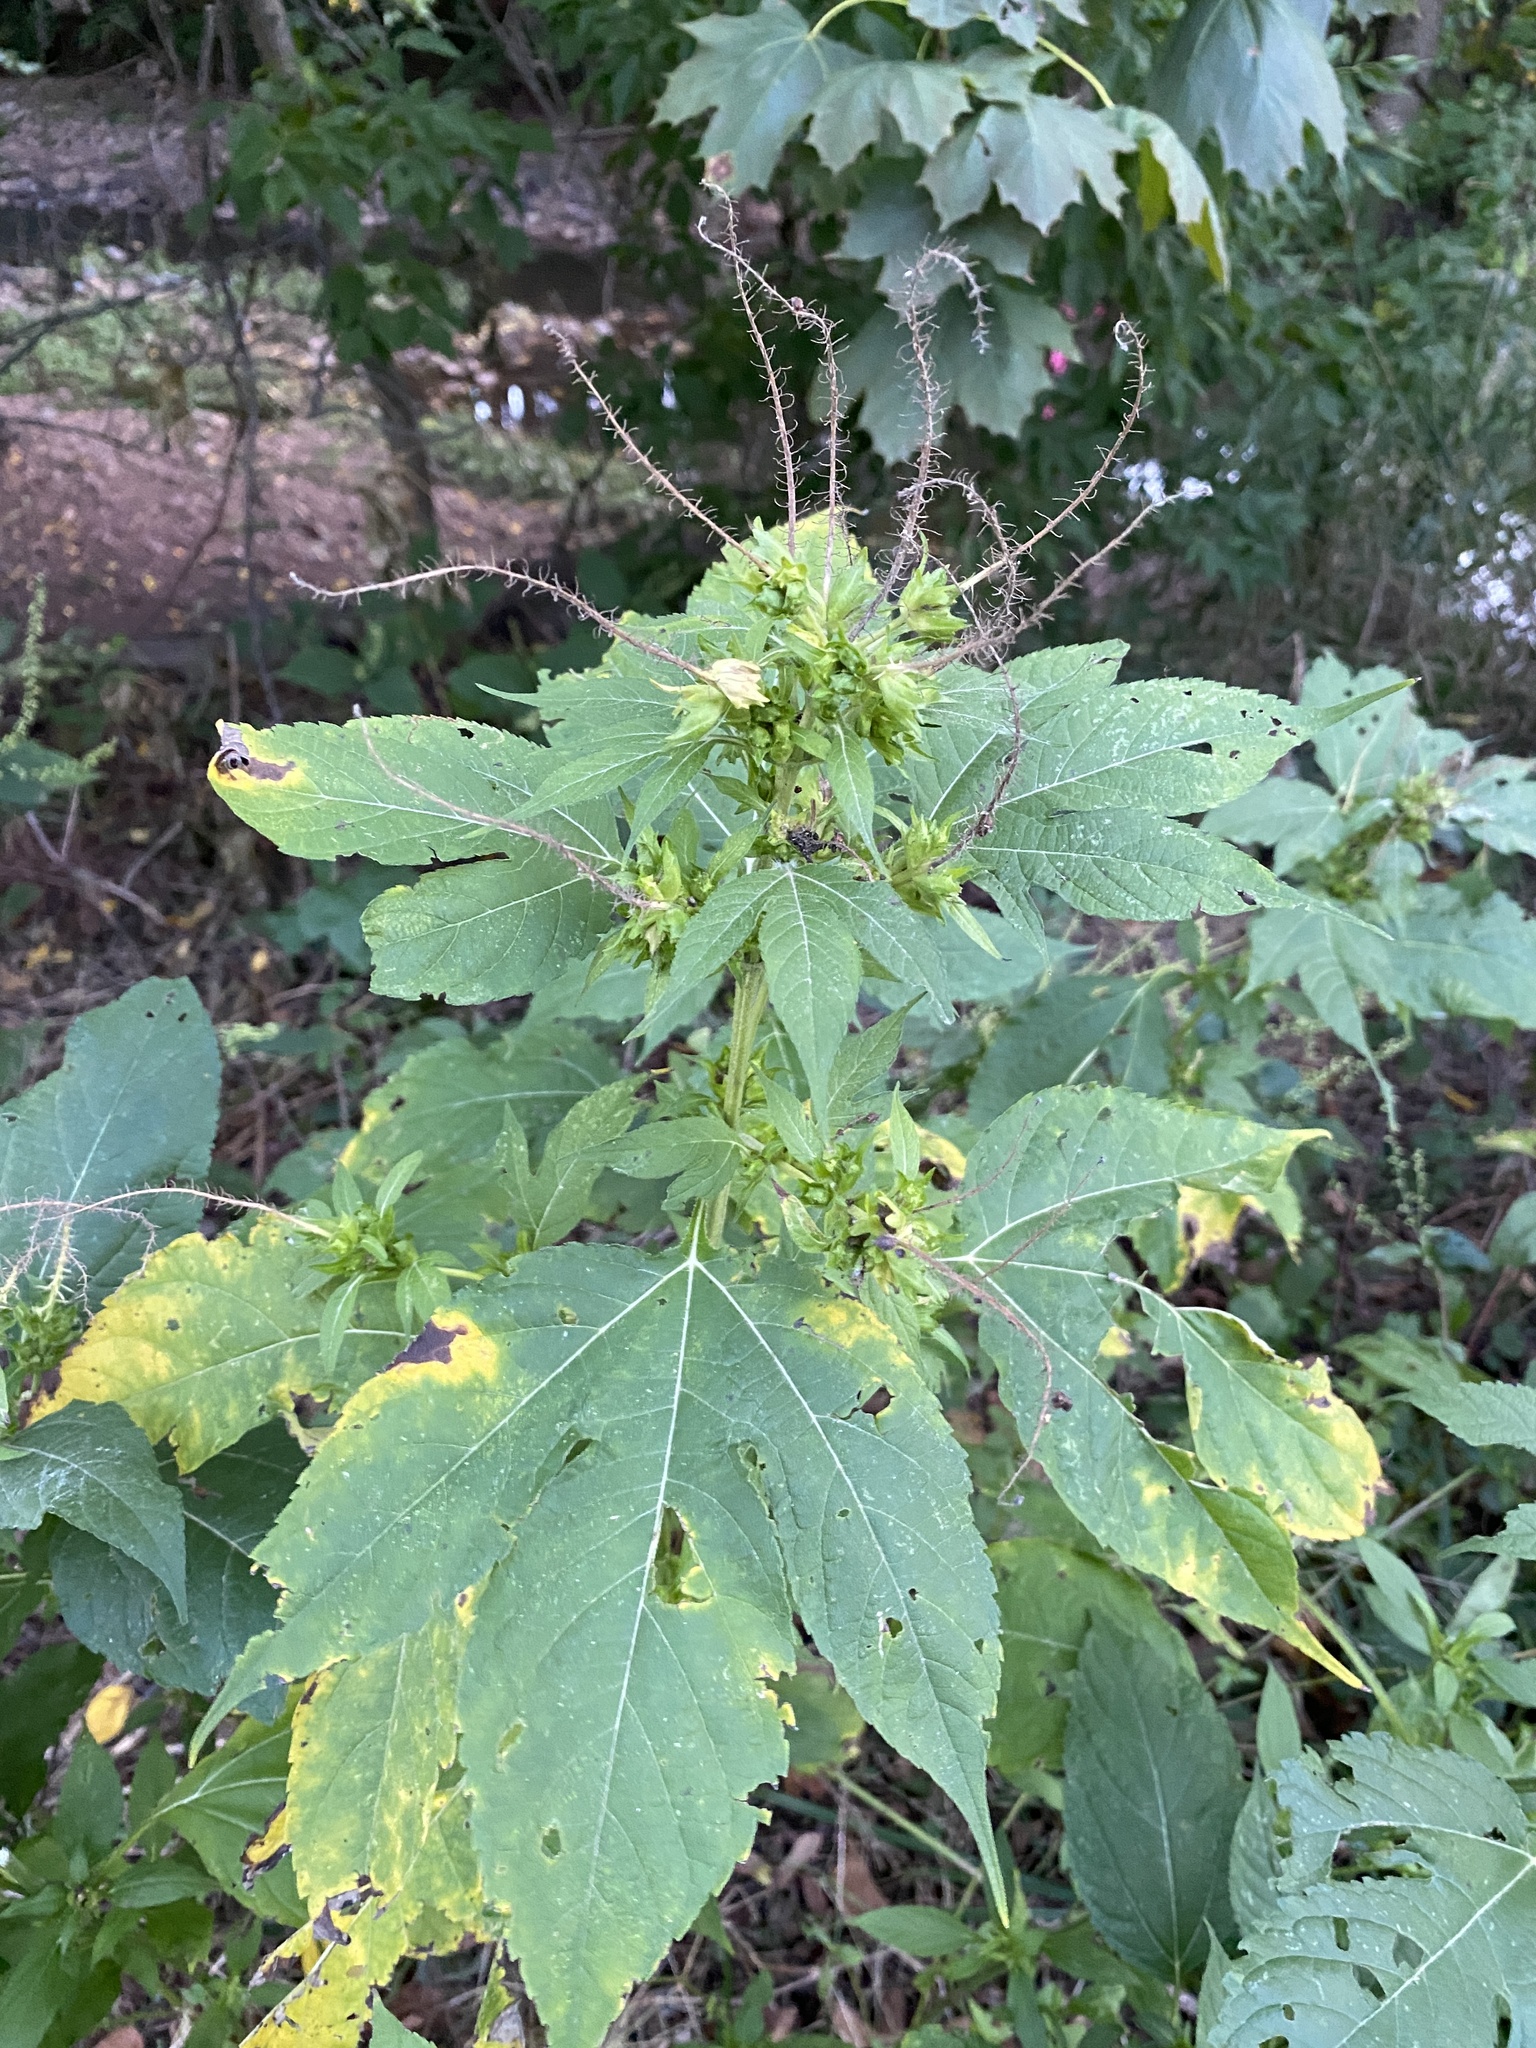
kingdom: Plantae
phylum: Tracheophyta
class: Magnoliopsida
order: Asterales
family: Asteraceae
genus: Ambrosia
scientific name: Ambrosia trifida
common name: Giant ragweed
